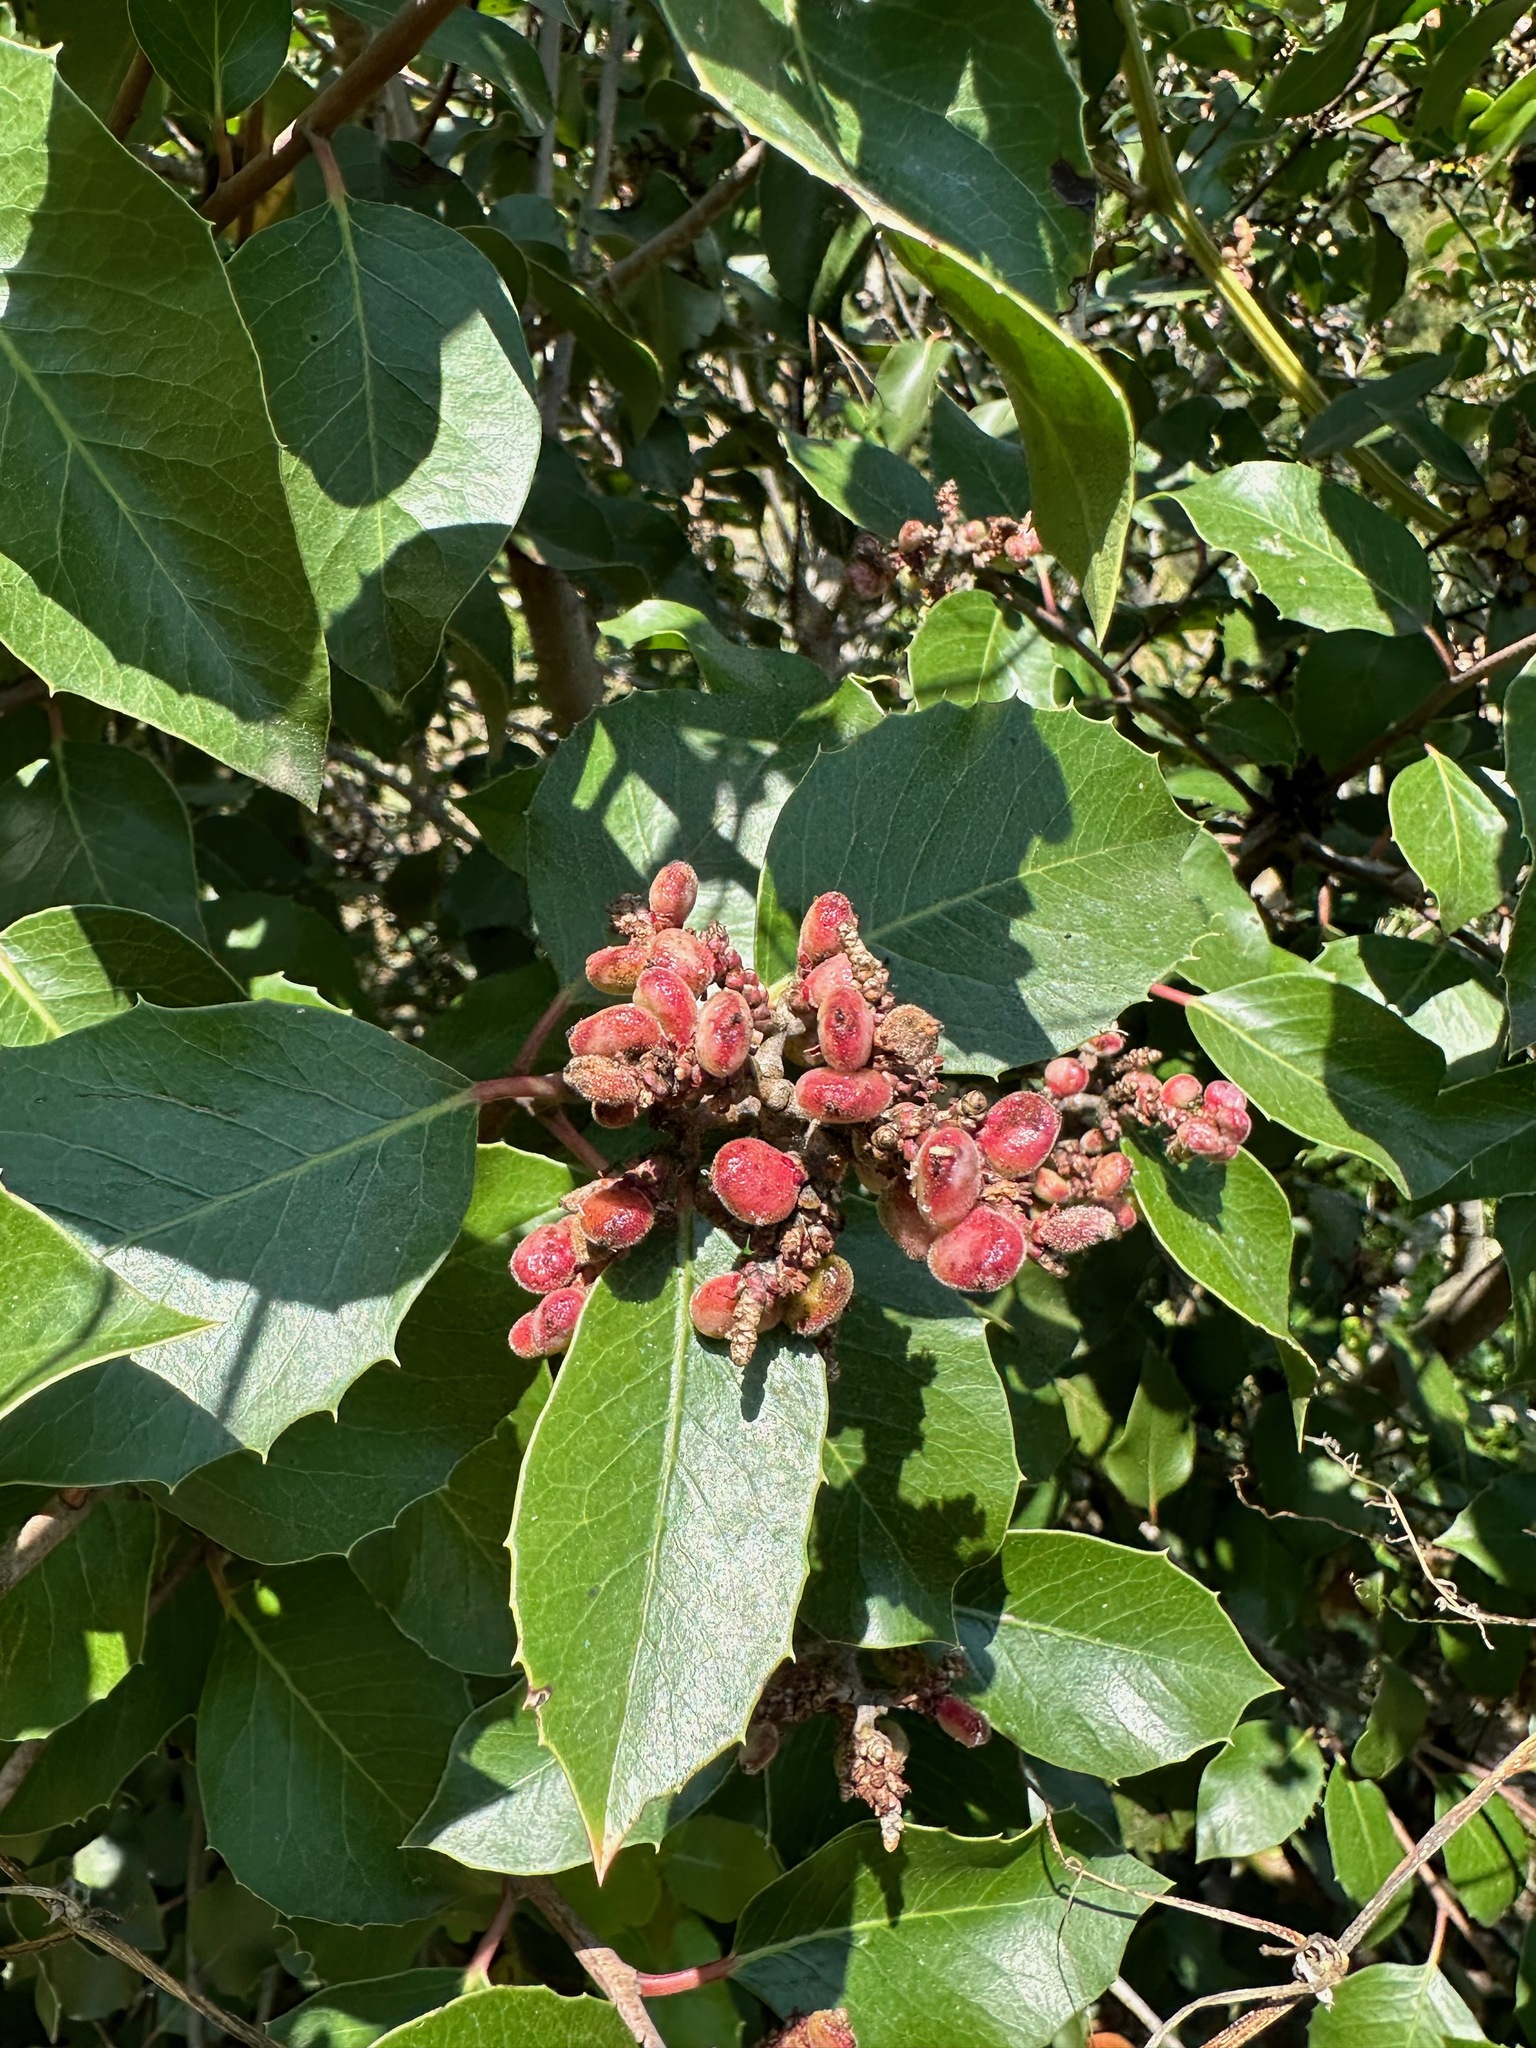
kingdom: Plantae
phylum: Tracheophyta
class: Magnoliopsida
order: Sapindales
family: Anacardiaceae
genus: Rhus
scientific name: Rhus ovata
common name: Sugar sumac
